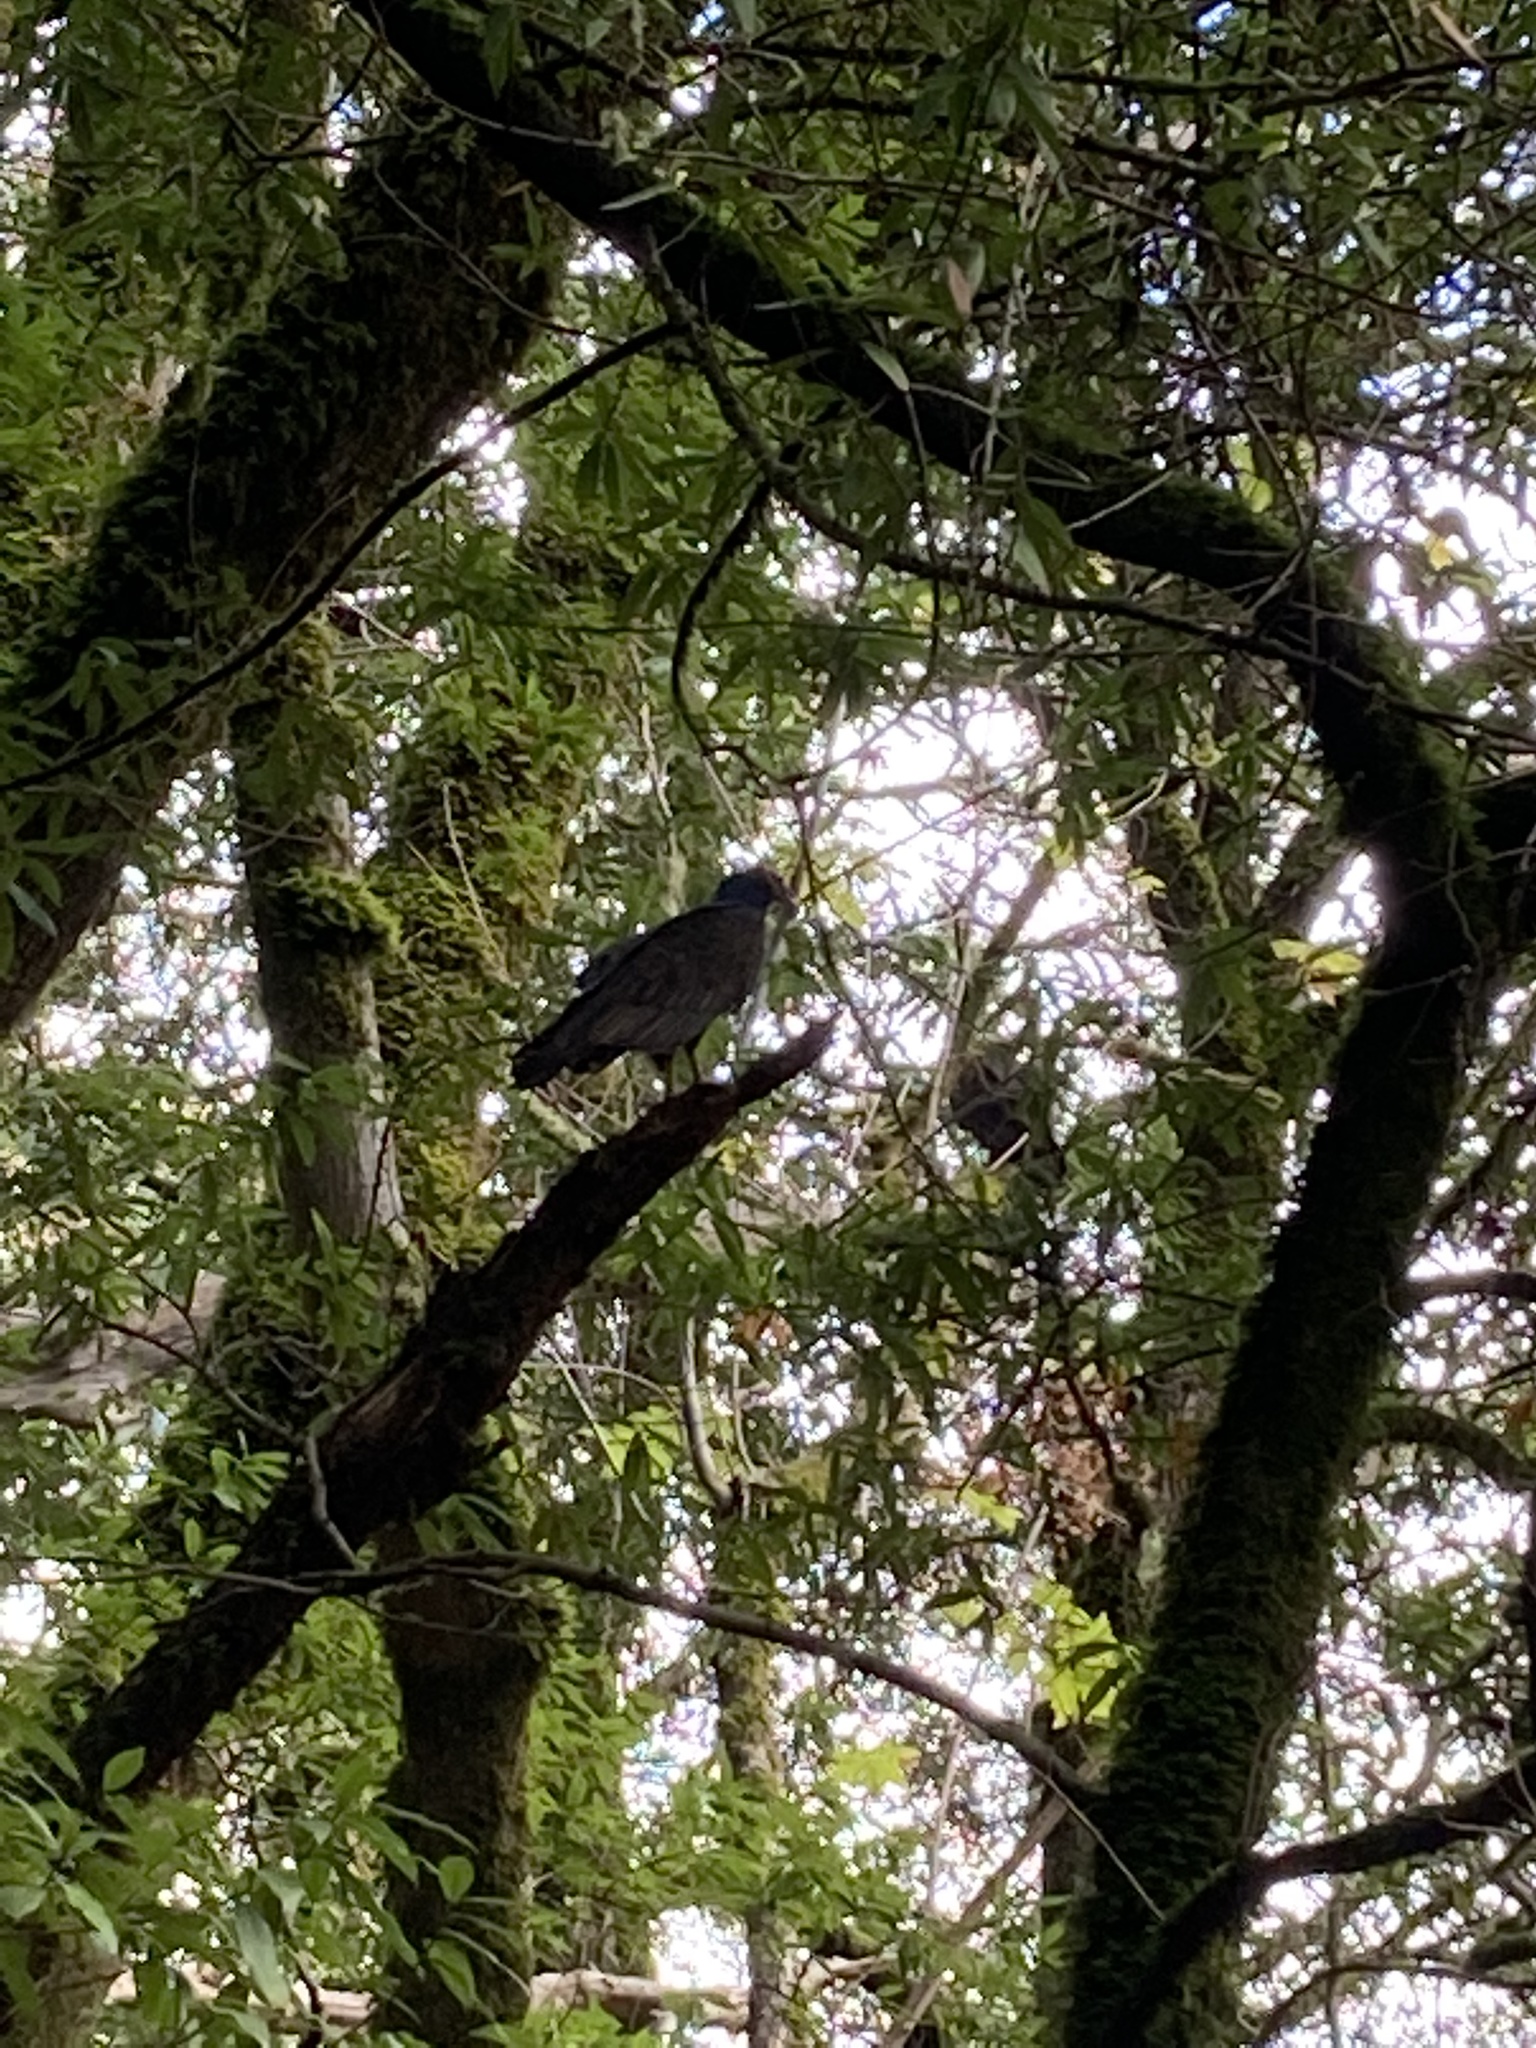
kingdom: Animalia
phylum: Chordata
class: Aves
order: Accipitriformes
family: Cathartidae
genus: Cathartes
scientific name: Cathartes aura
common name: Turkey vulture
